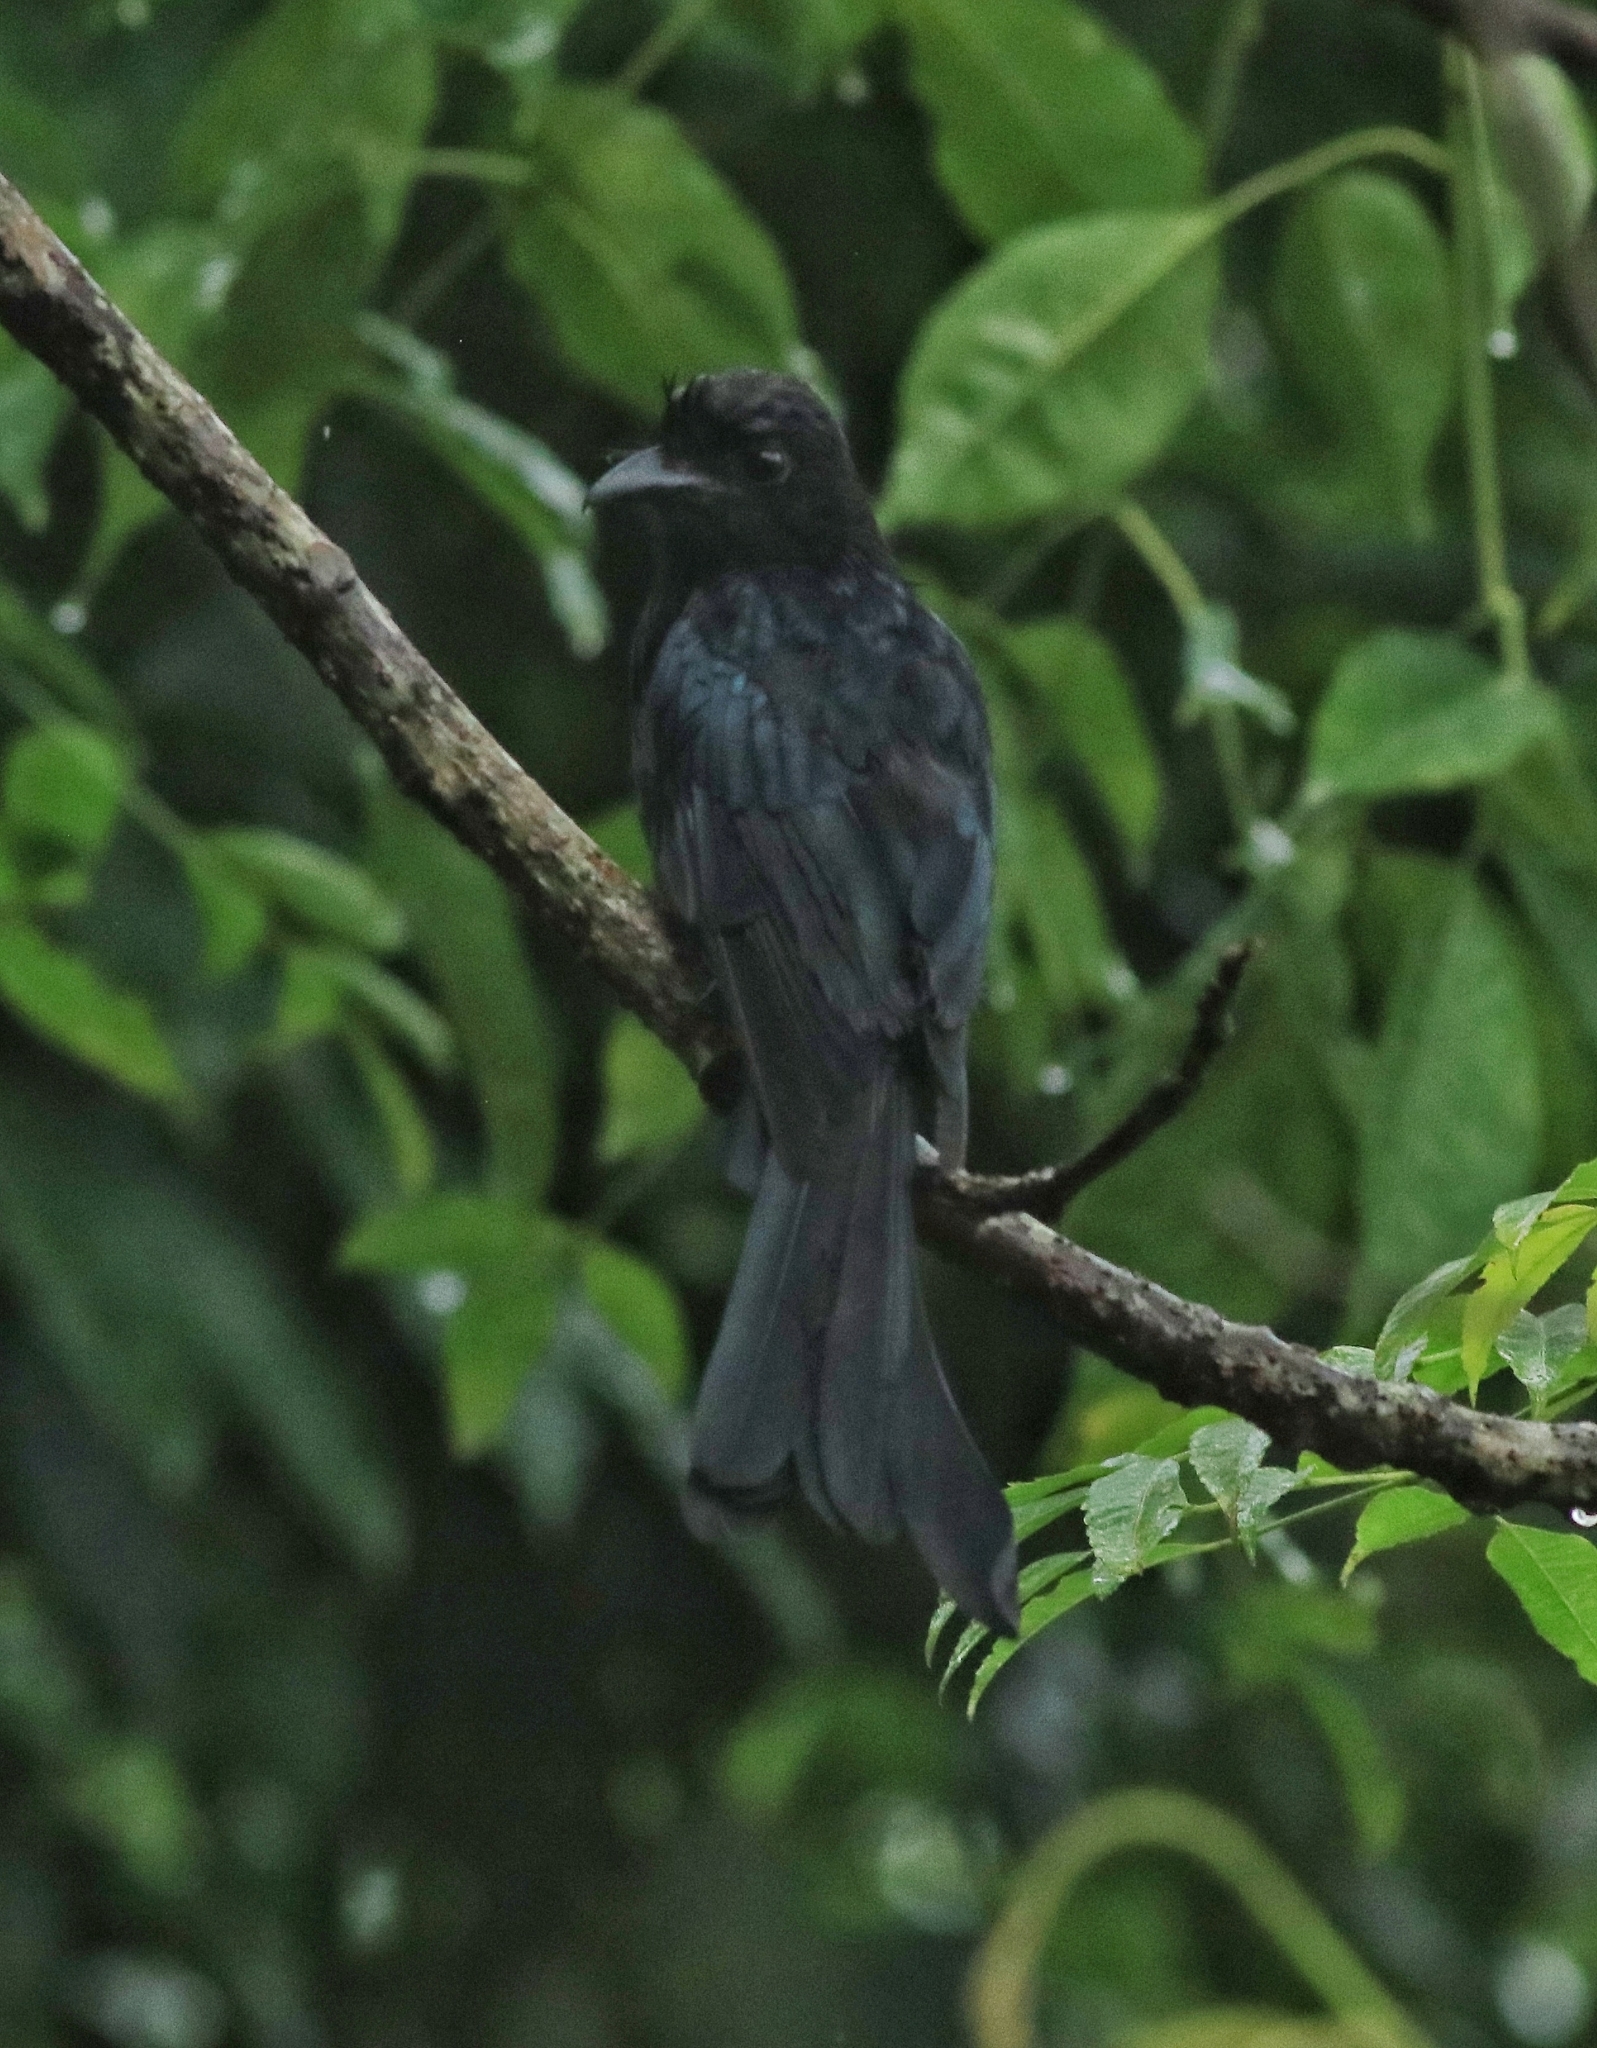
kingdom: Animalia
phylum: Chordata
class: Aves
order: Passeriformes
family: Dicruridae
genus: Dicrurus
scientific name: Dicrurus paradiseus
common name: Greater racket-tailed drongo
